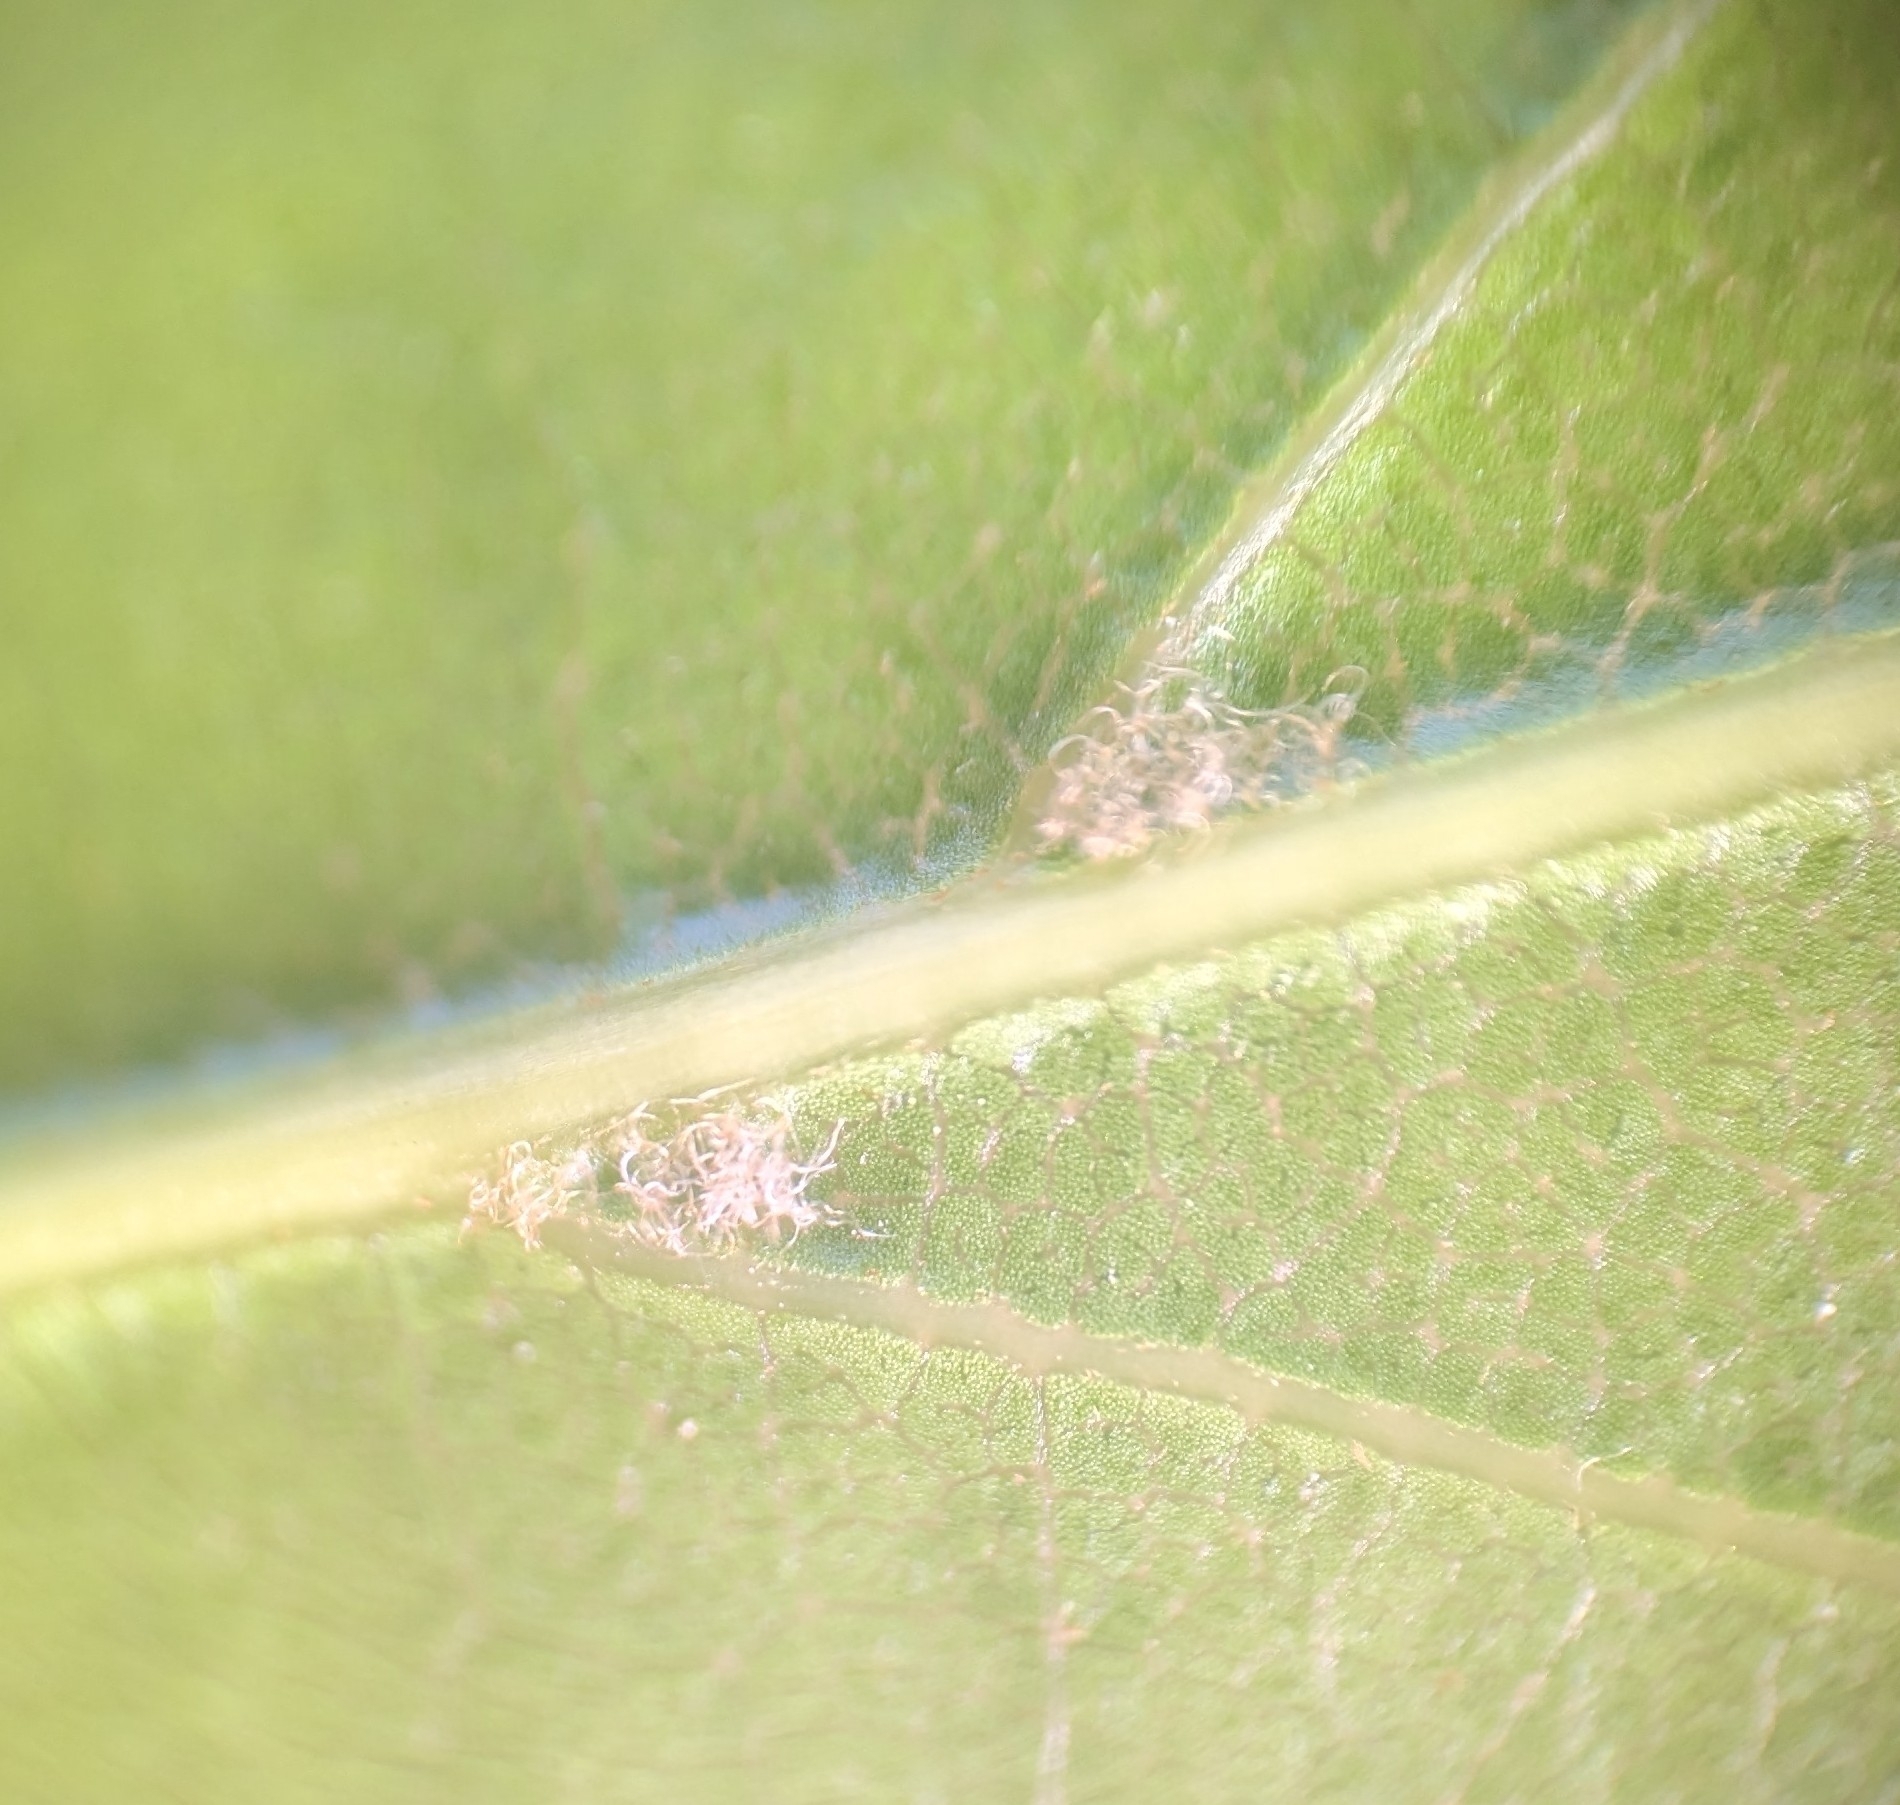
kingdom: Plantae
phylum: Tracheophyta
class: Magnoliopsida
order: Fagales
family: Fagaceae
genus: Quercus
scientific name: Quercus laurifolia
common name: Swamp laurel oak
